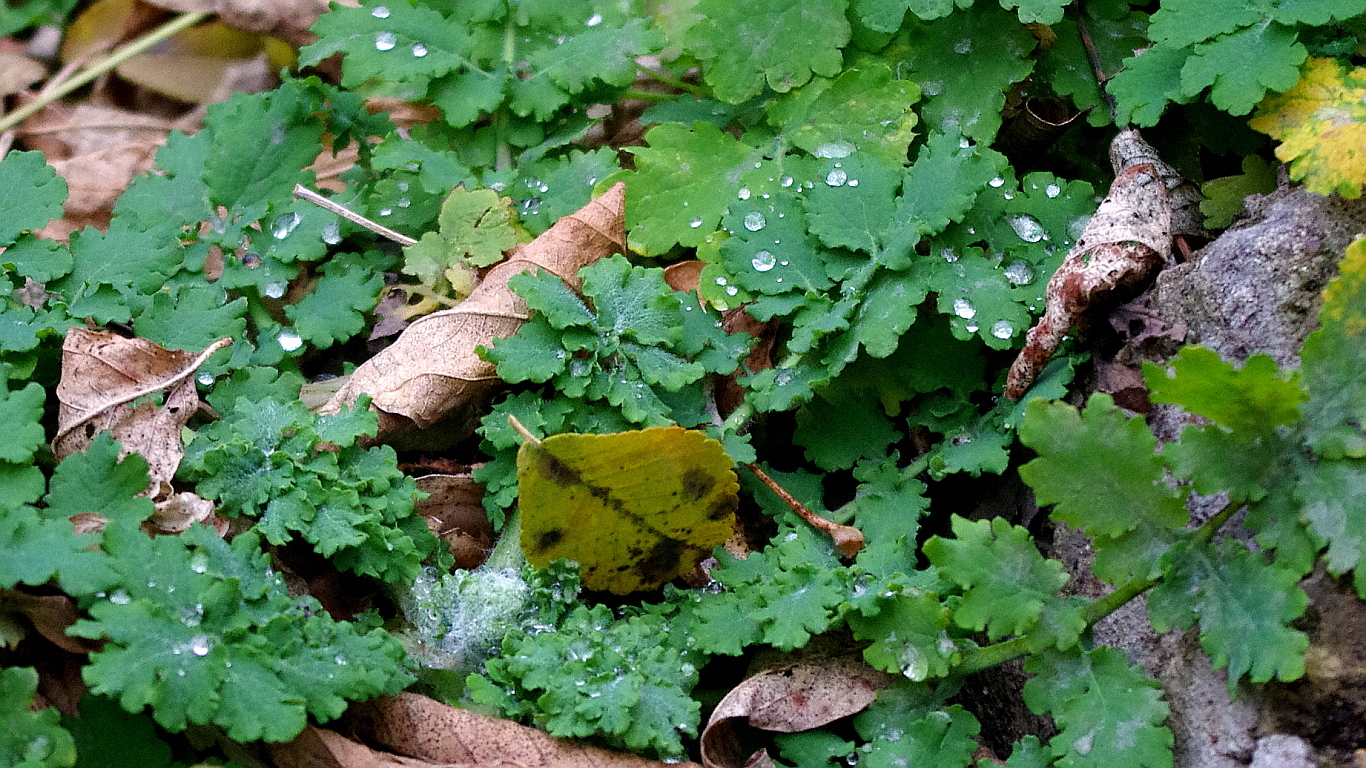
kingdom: Plantae
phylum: Tracheophyta
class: Magnoliopsida
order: Ranunculales
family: Papaveraceae
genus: Chelidonium
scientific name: Chelidonium majus
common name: Greater celandine
